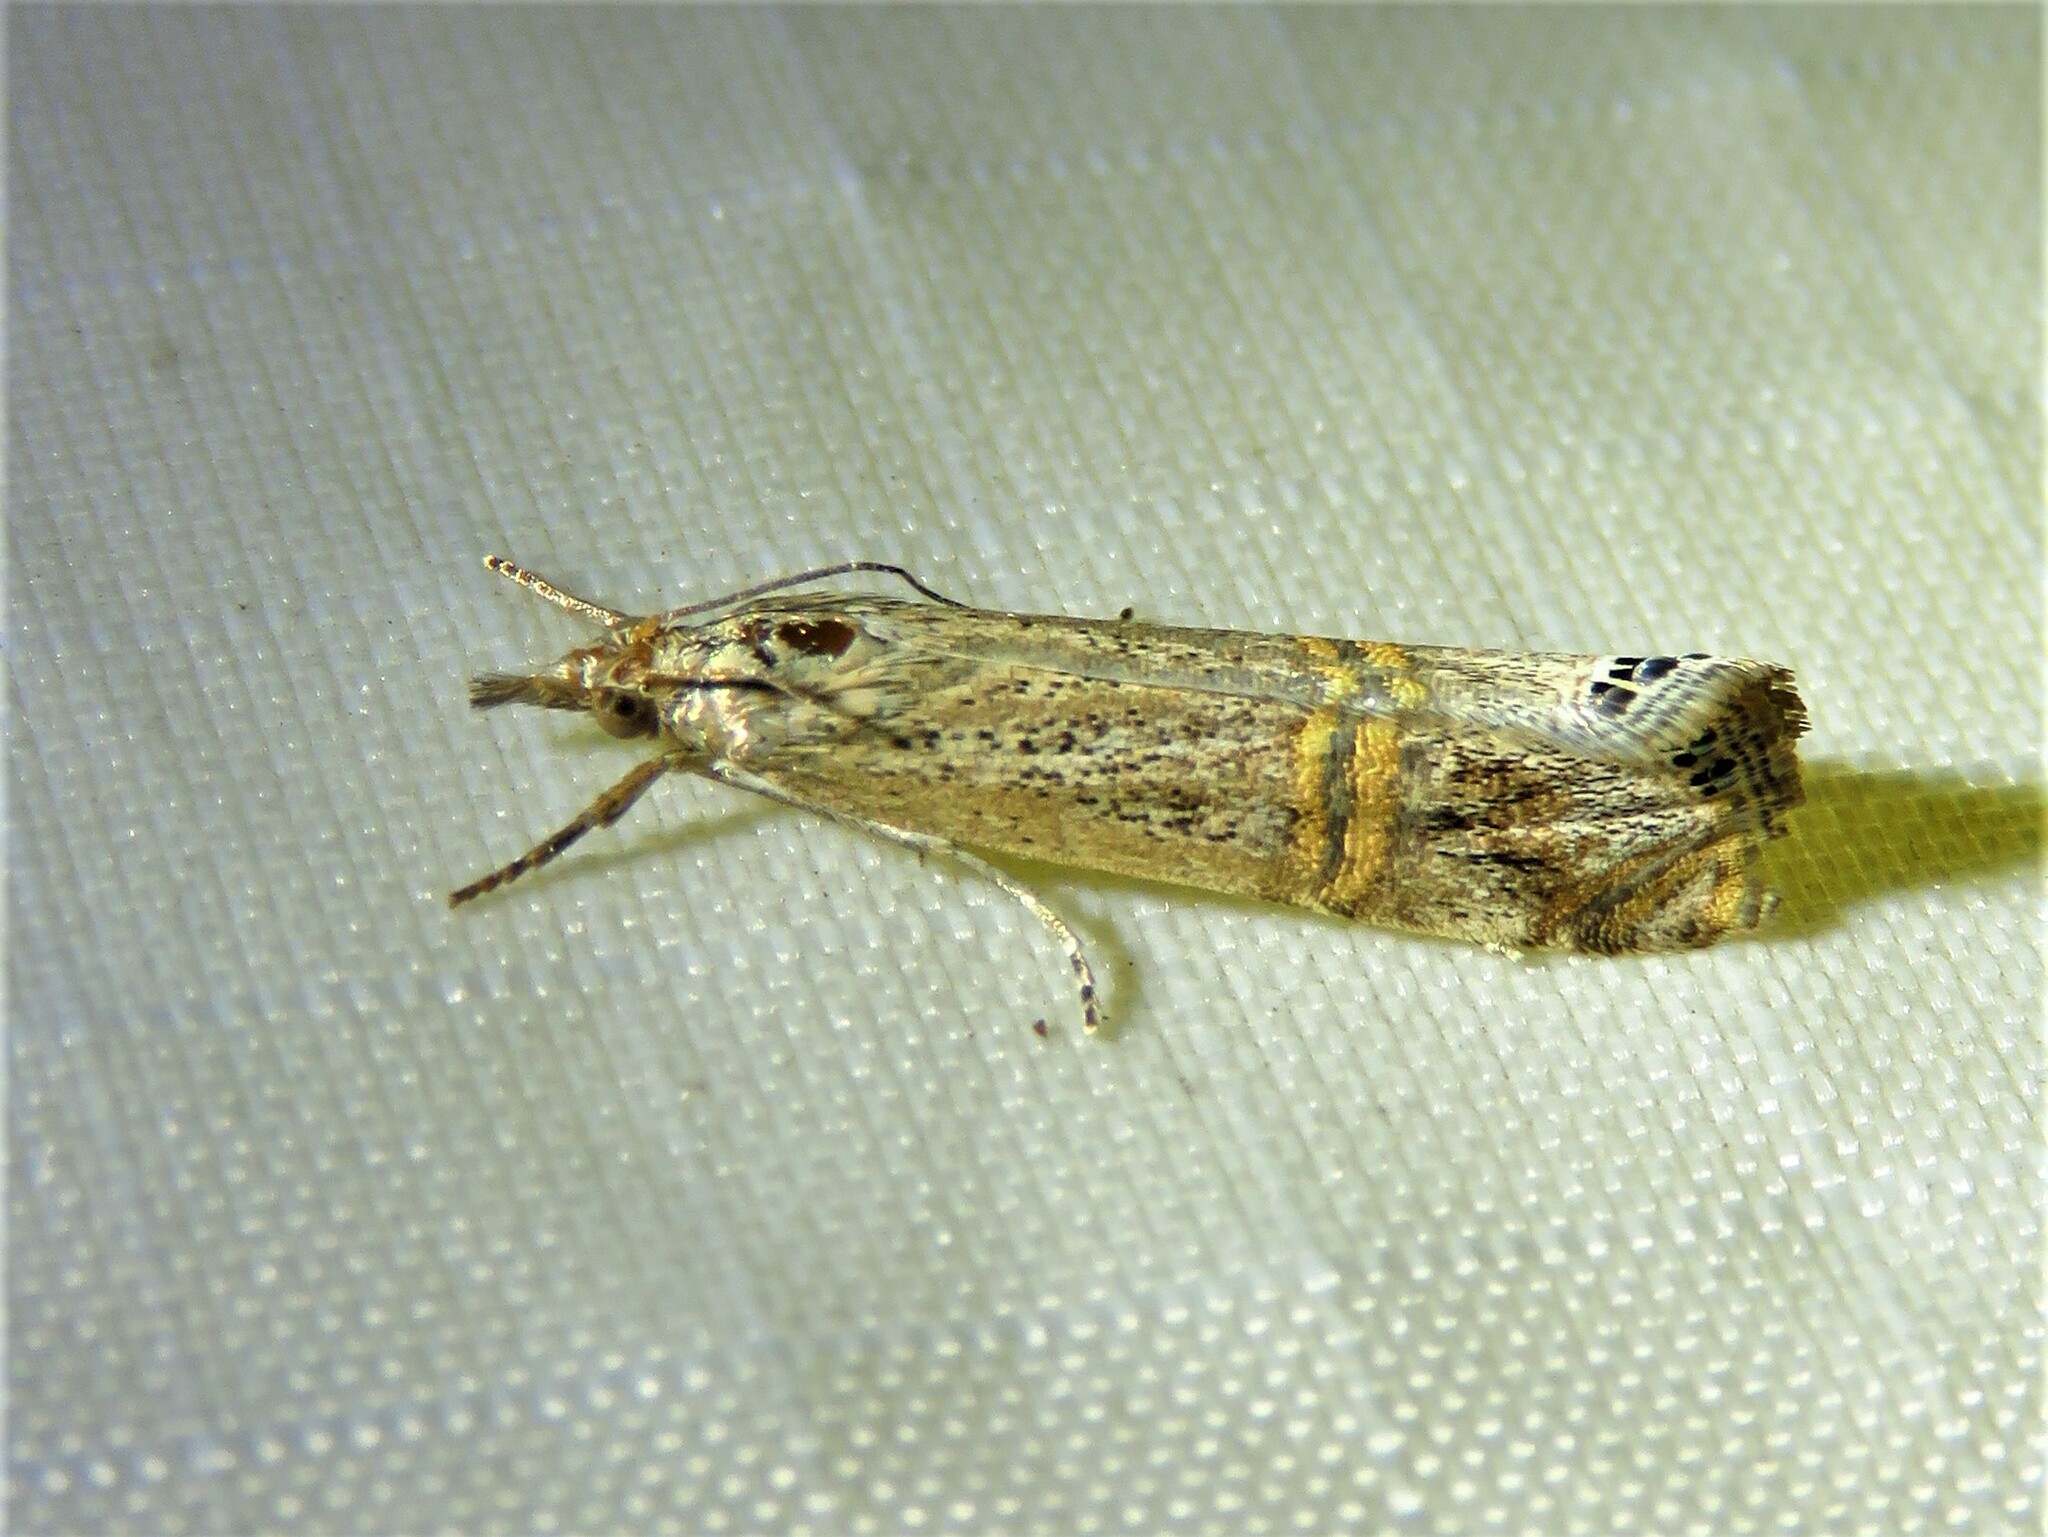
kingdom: Animalia
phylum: Arthropoda
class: Insecta
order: Lepidoptera
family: Crambidae
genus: Euchromius
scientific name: Euchromius ocellea
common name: Necklace veneer moth
